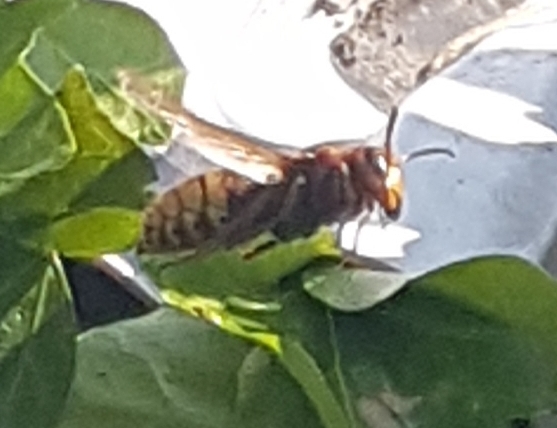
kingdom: Animalia
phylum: Arthropoda
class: Insecta
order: Hymenoptera
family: Vespidae
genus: Vespa
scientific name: Vespa crabro
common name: Hornet
